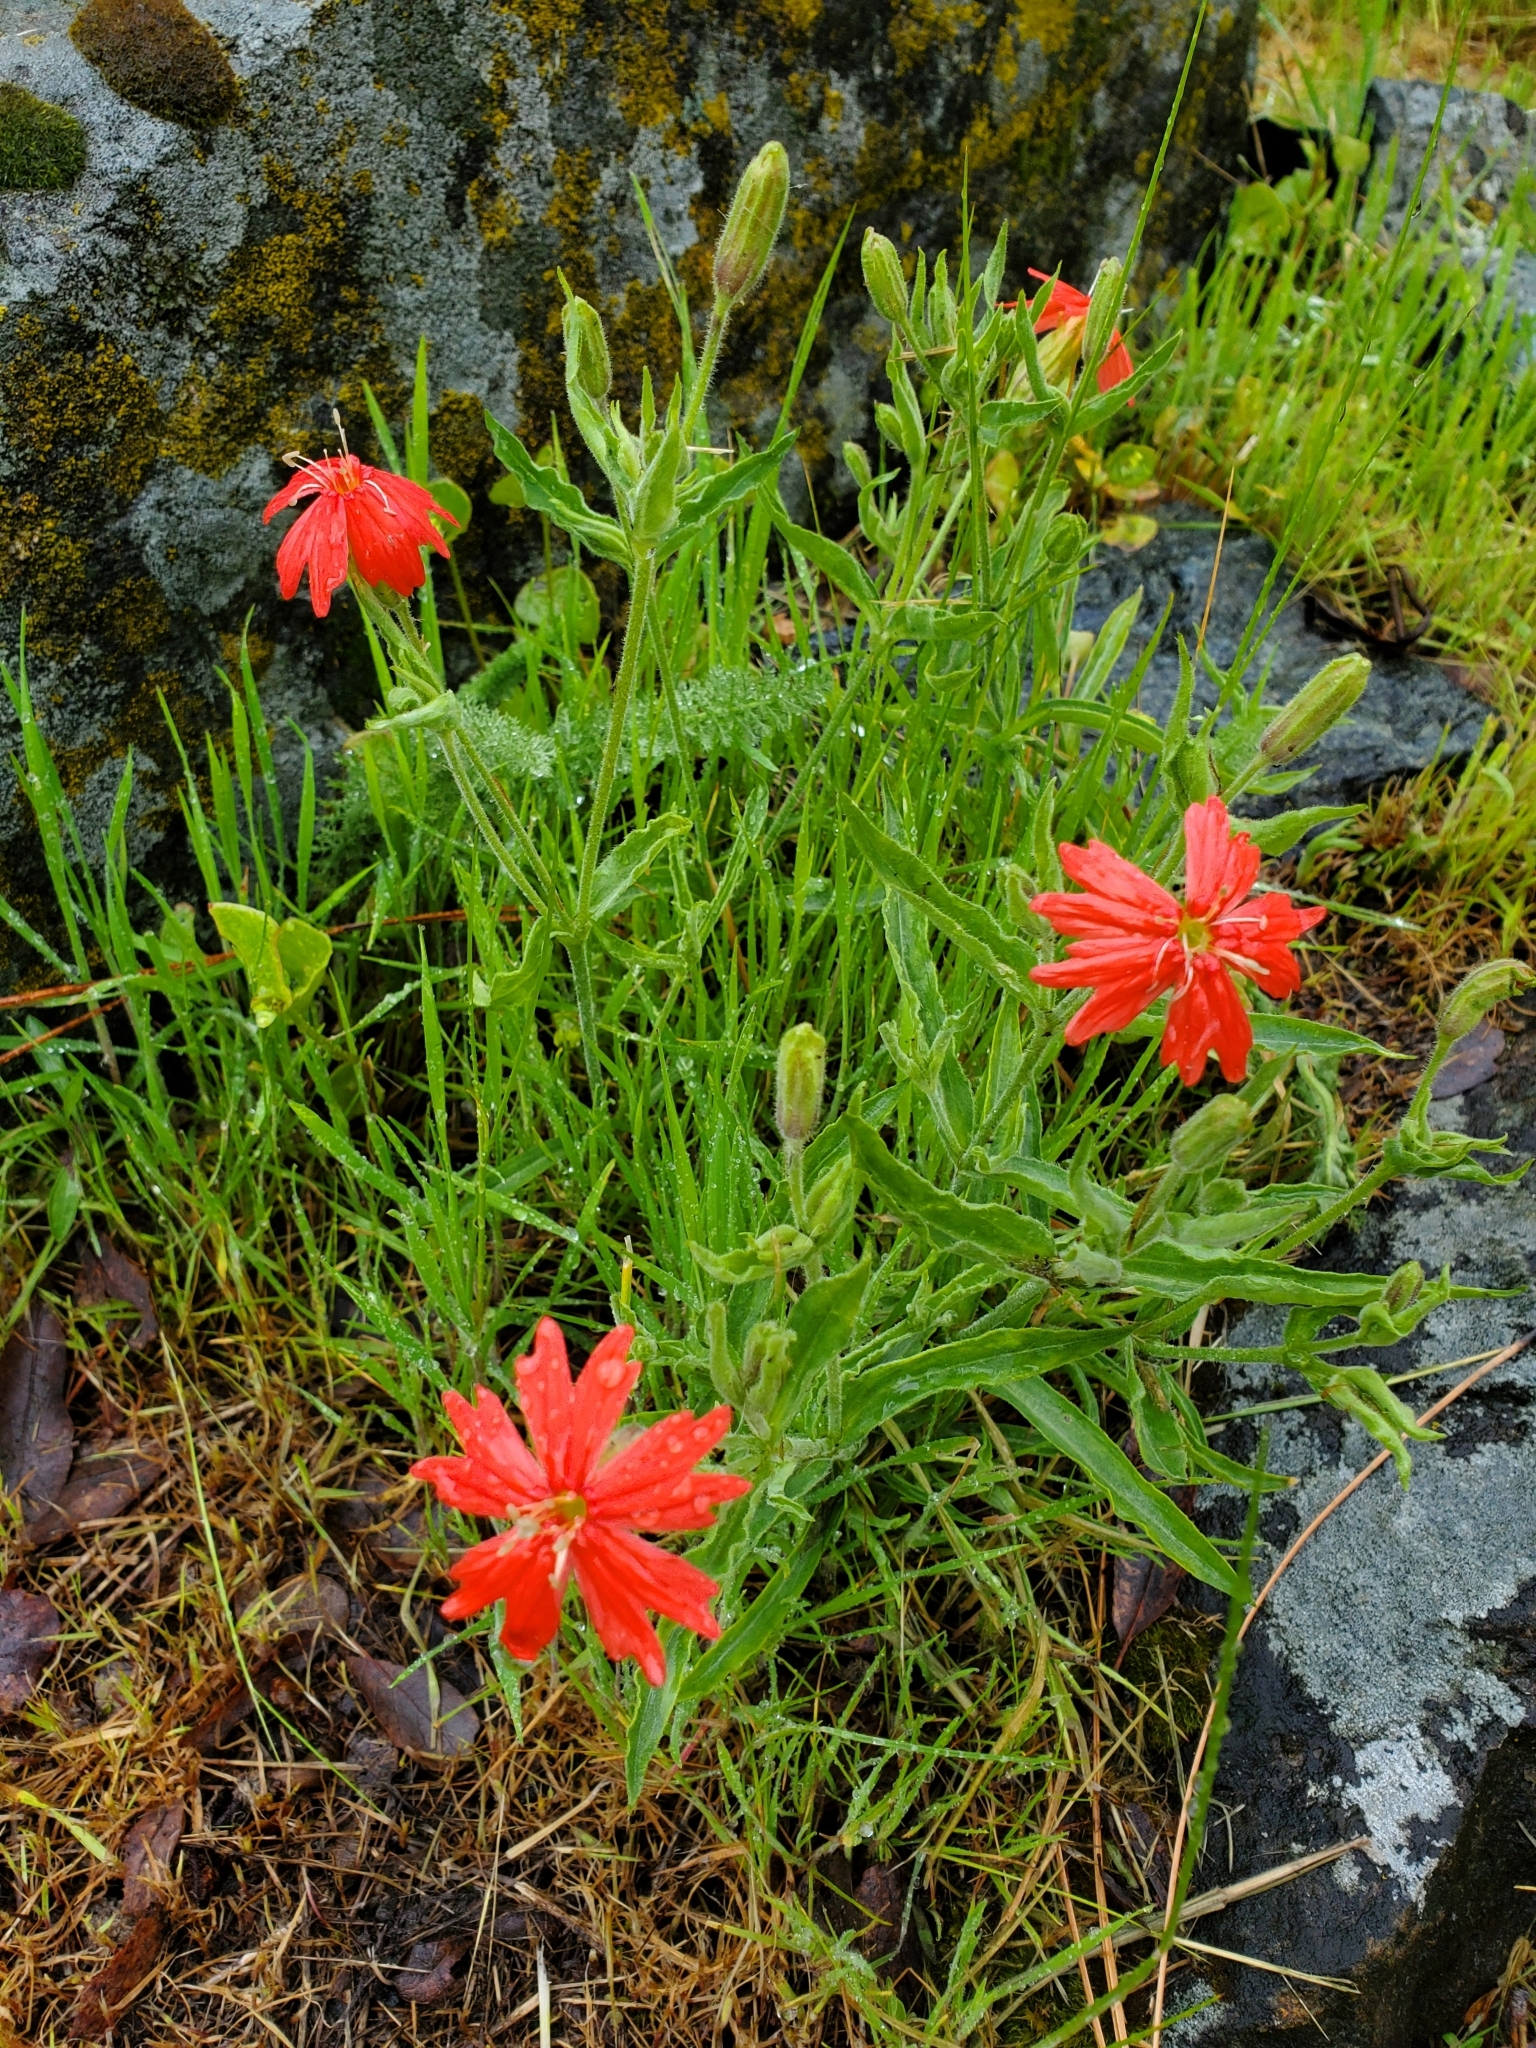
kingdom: Plantae
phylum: Tracheophyta
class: Magnoliopsida
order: Caryophyllales
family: Caryophyllaceae
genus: Silene
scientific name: Silene laciniata
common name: Indian-pink
